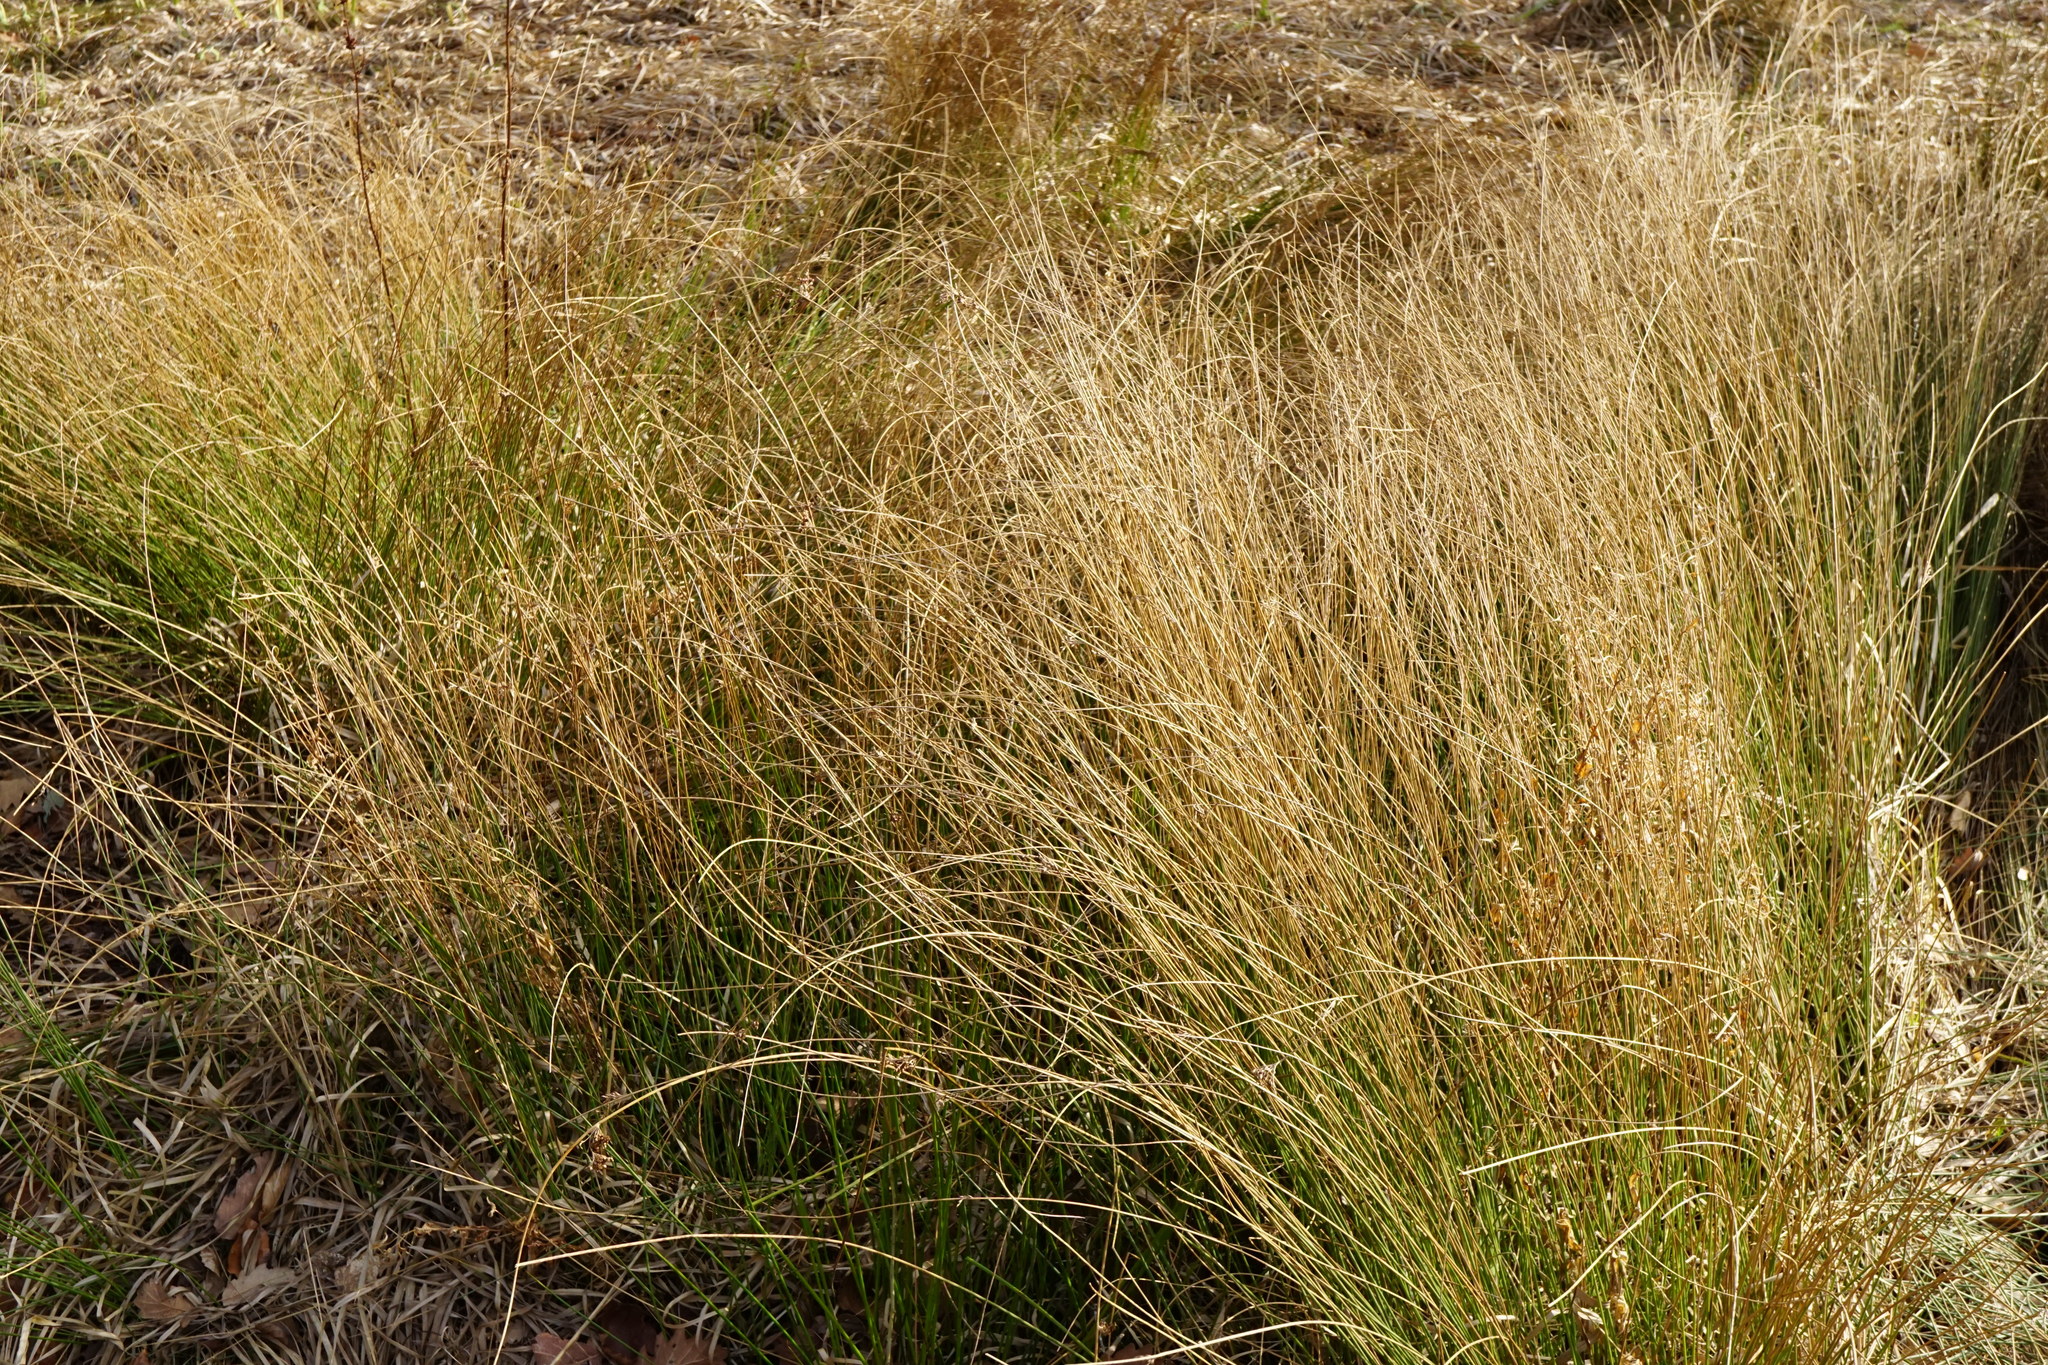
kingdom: Plantae
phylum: Tracheophyta
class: Liliopsida
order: Poales
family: Juncaceae
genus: Juncus
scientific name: Juncus inflexus
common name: Hard rush
